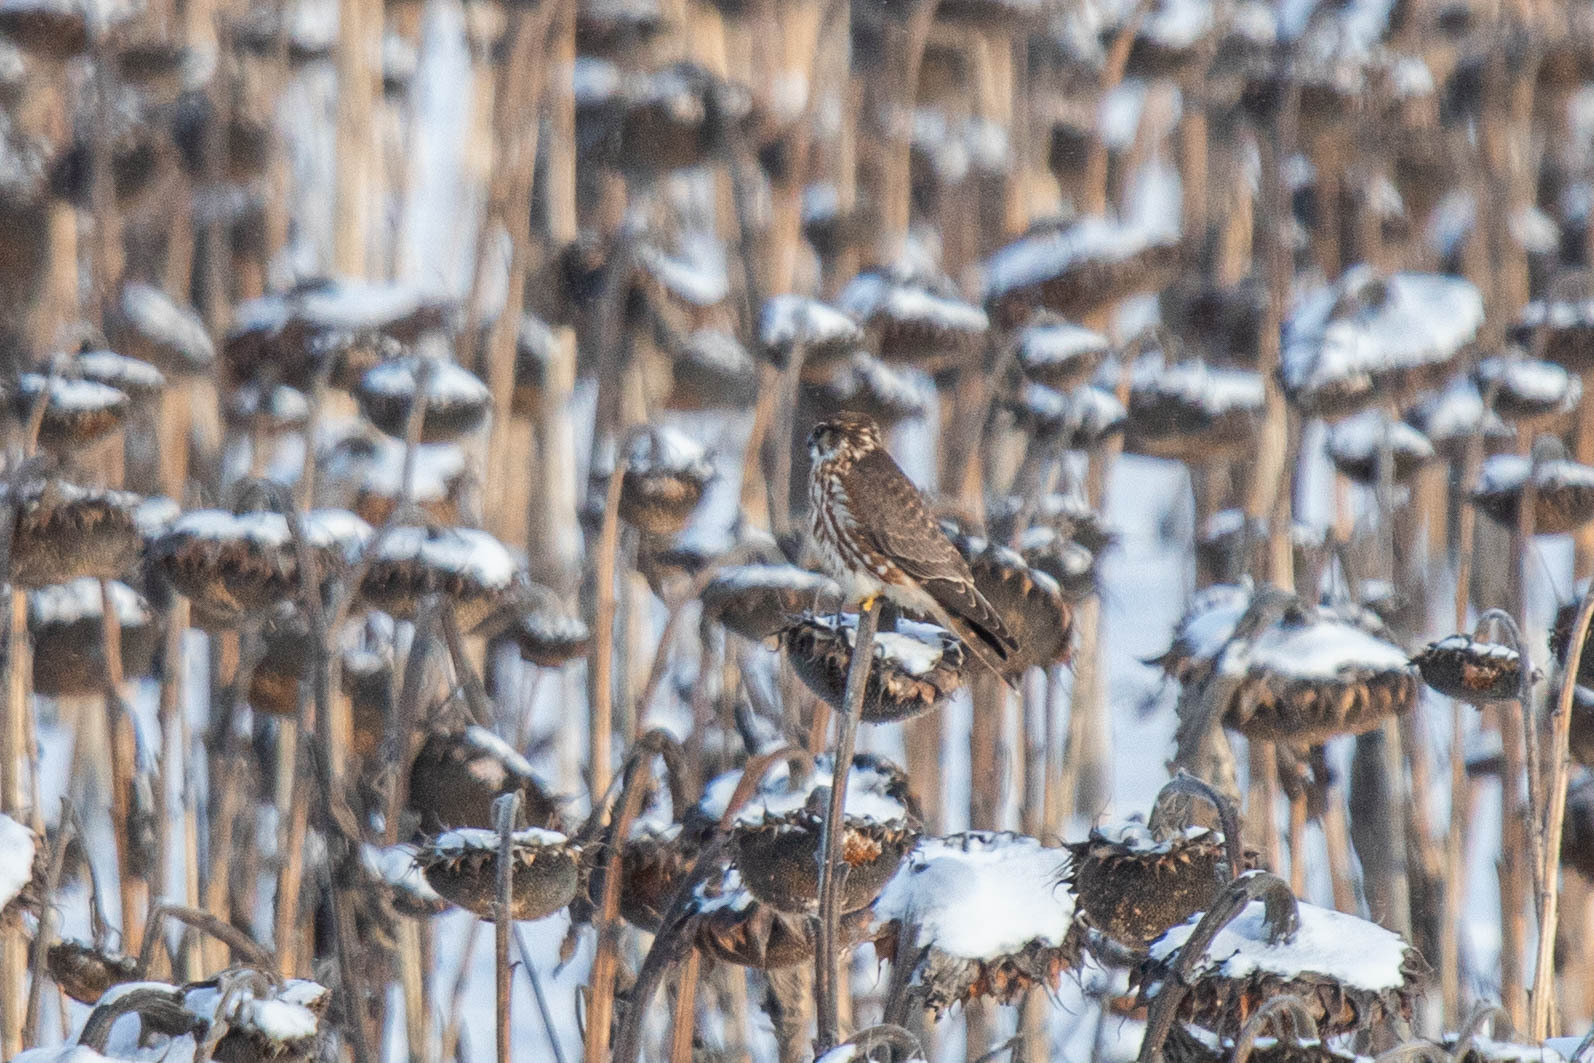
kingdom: Animalia
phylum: Chordata
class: Aves
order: Falconiformes
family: Falconidae
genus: Falco
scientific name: Falco columbarius
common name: Merlin
